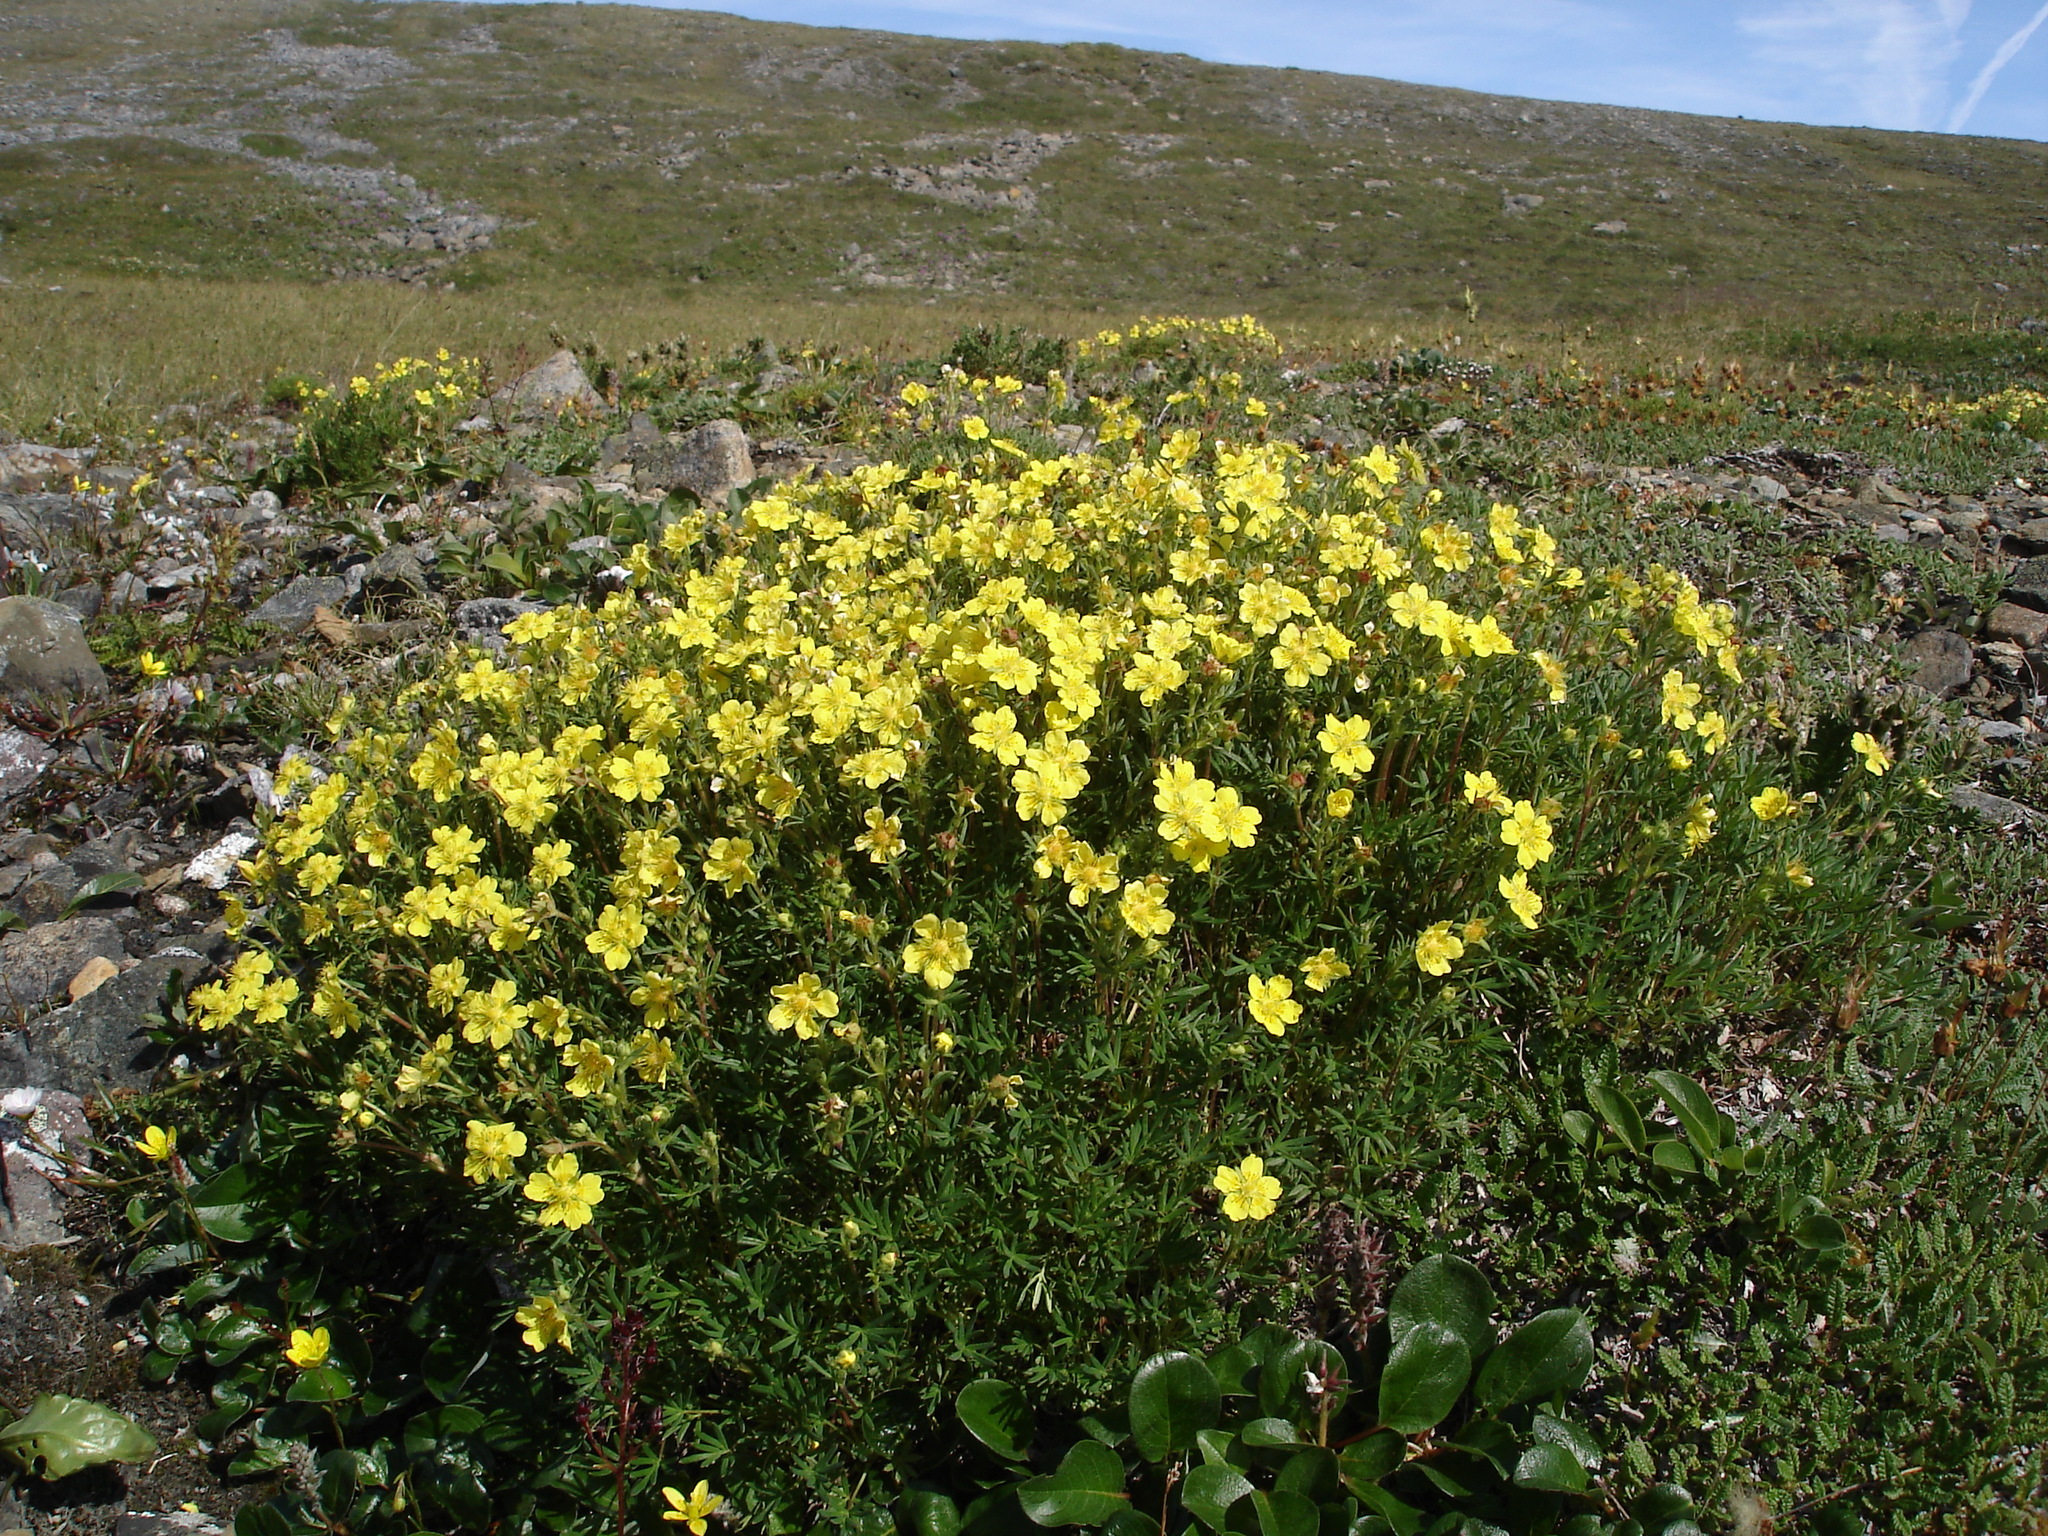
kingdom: Plantae
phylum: Tracheophyta
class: Magnoliopsida
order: Rosales
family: Rosaceae
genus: Potentilla
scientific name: Potentilla biflora
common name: Two-flowered cinquefoil
